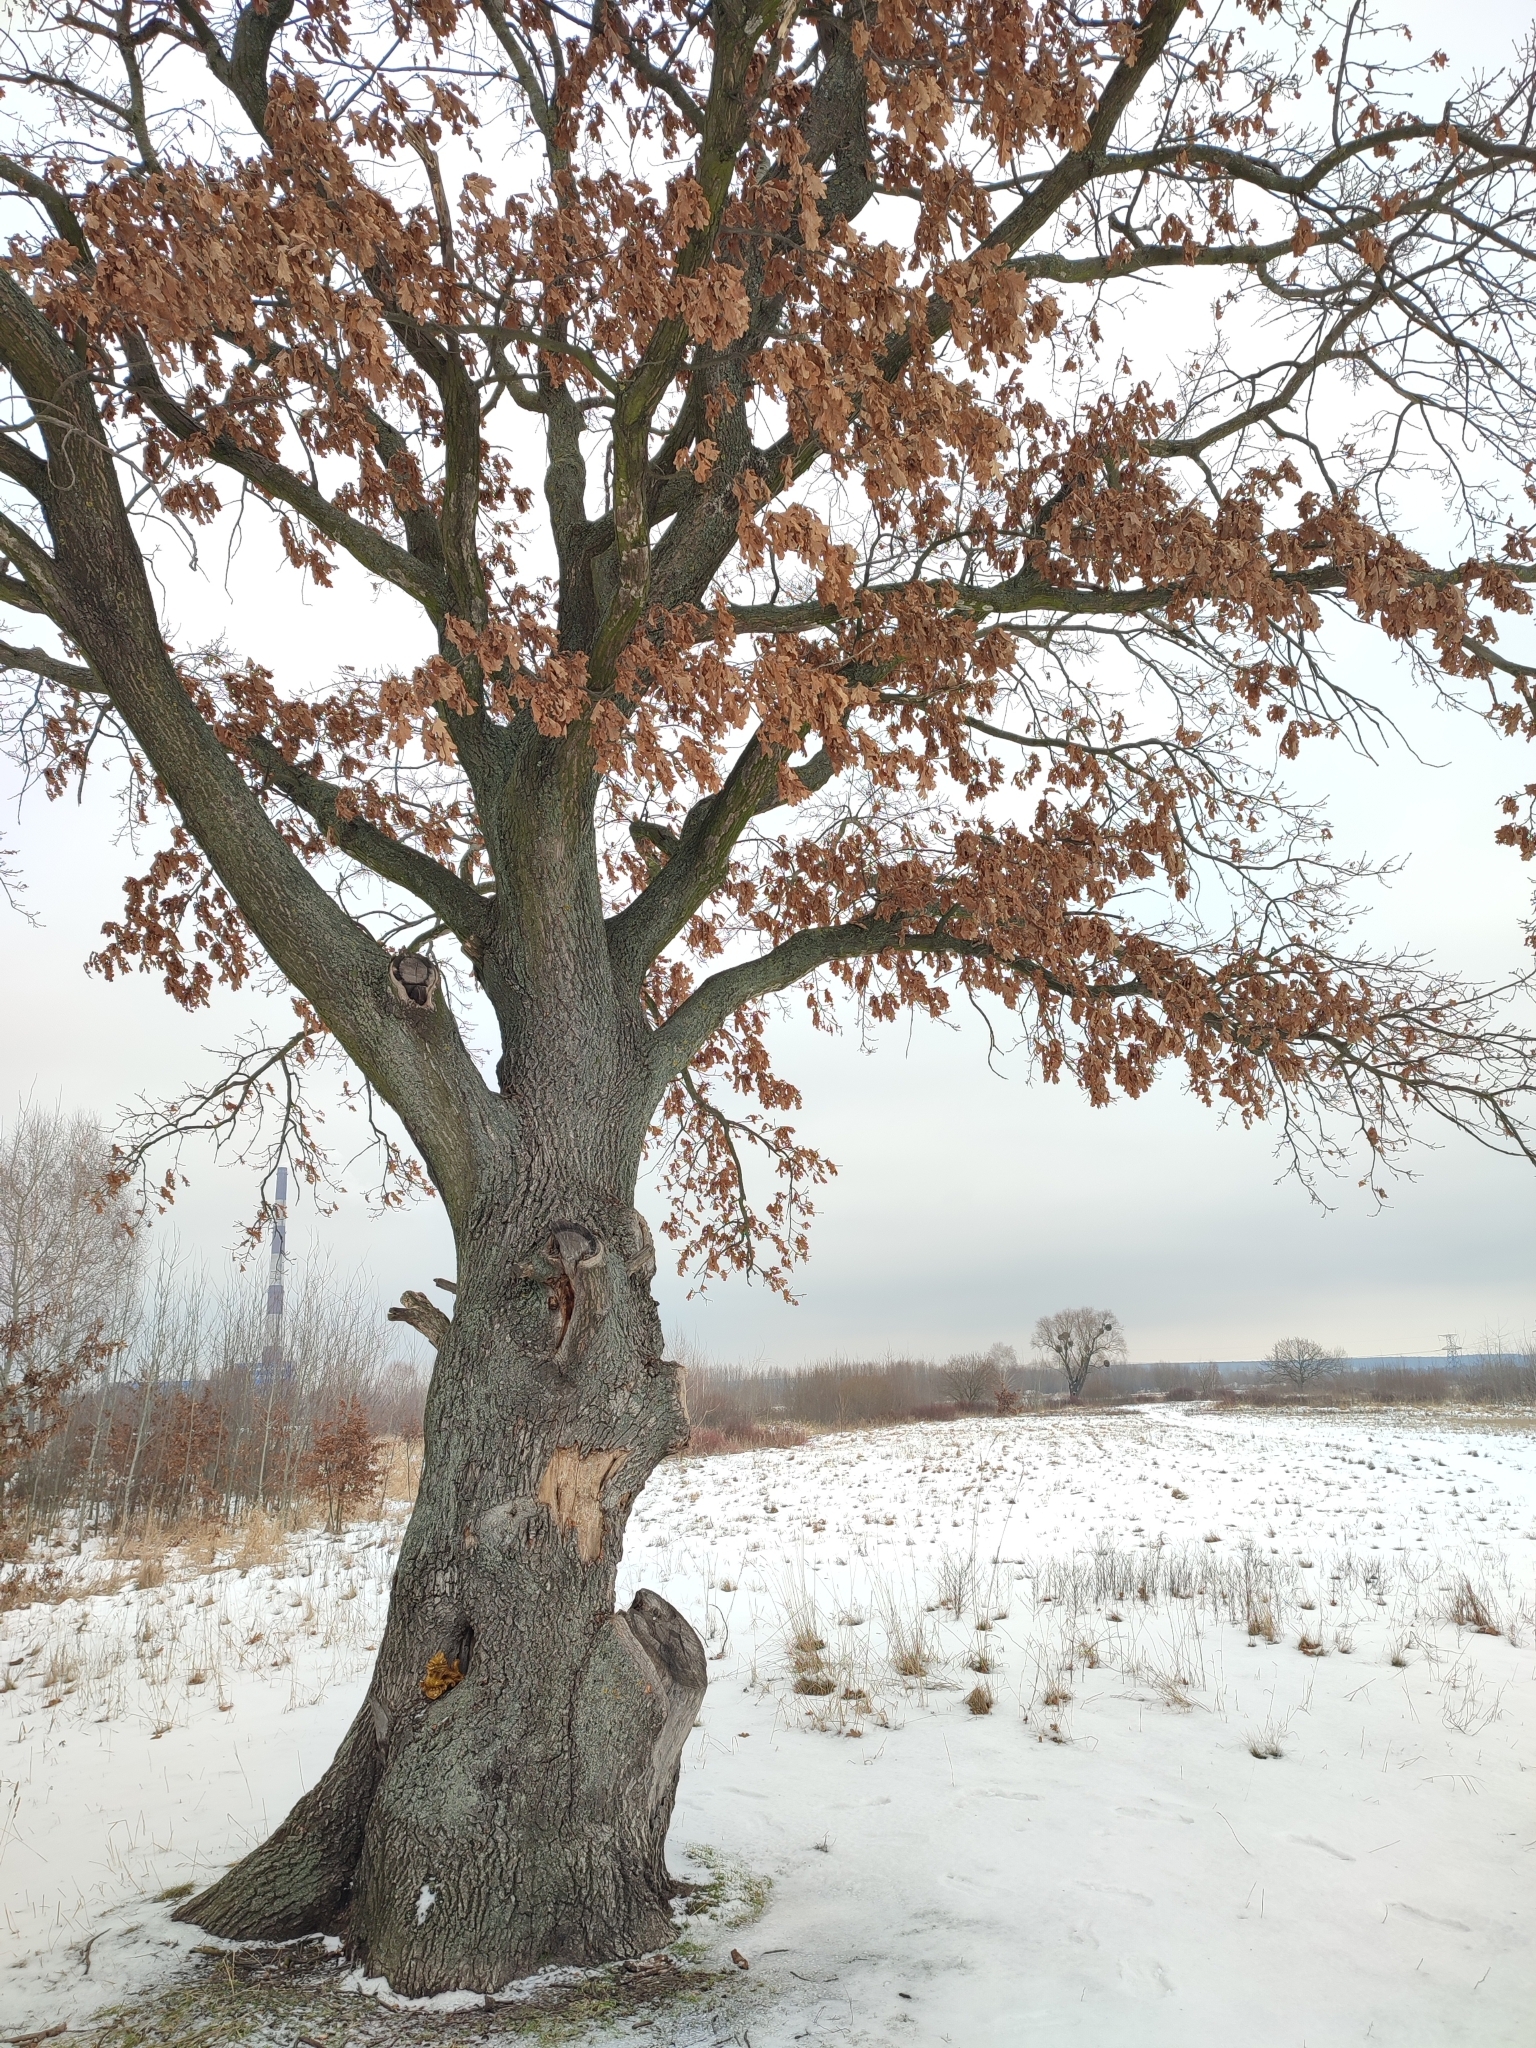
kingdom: Plantae
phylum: Tracheophyta
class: Magnoliopsida
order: Fagales
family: Fagaceae
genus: Quercus
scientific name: Quercus robur
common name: Pedunculate oak
